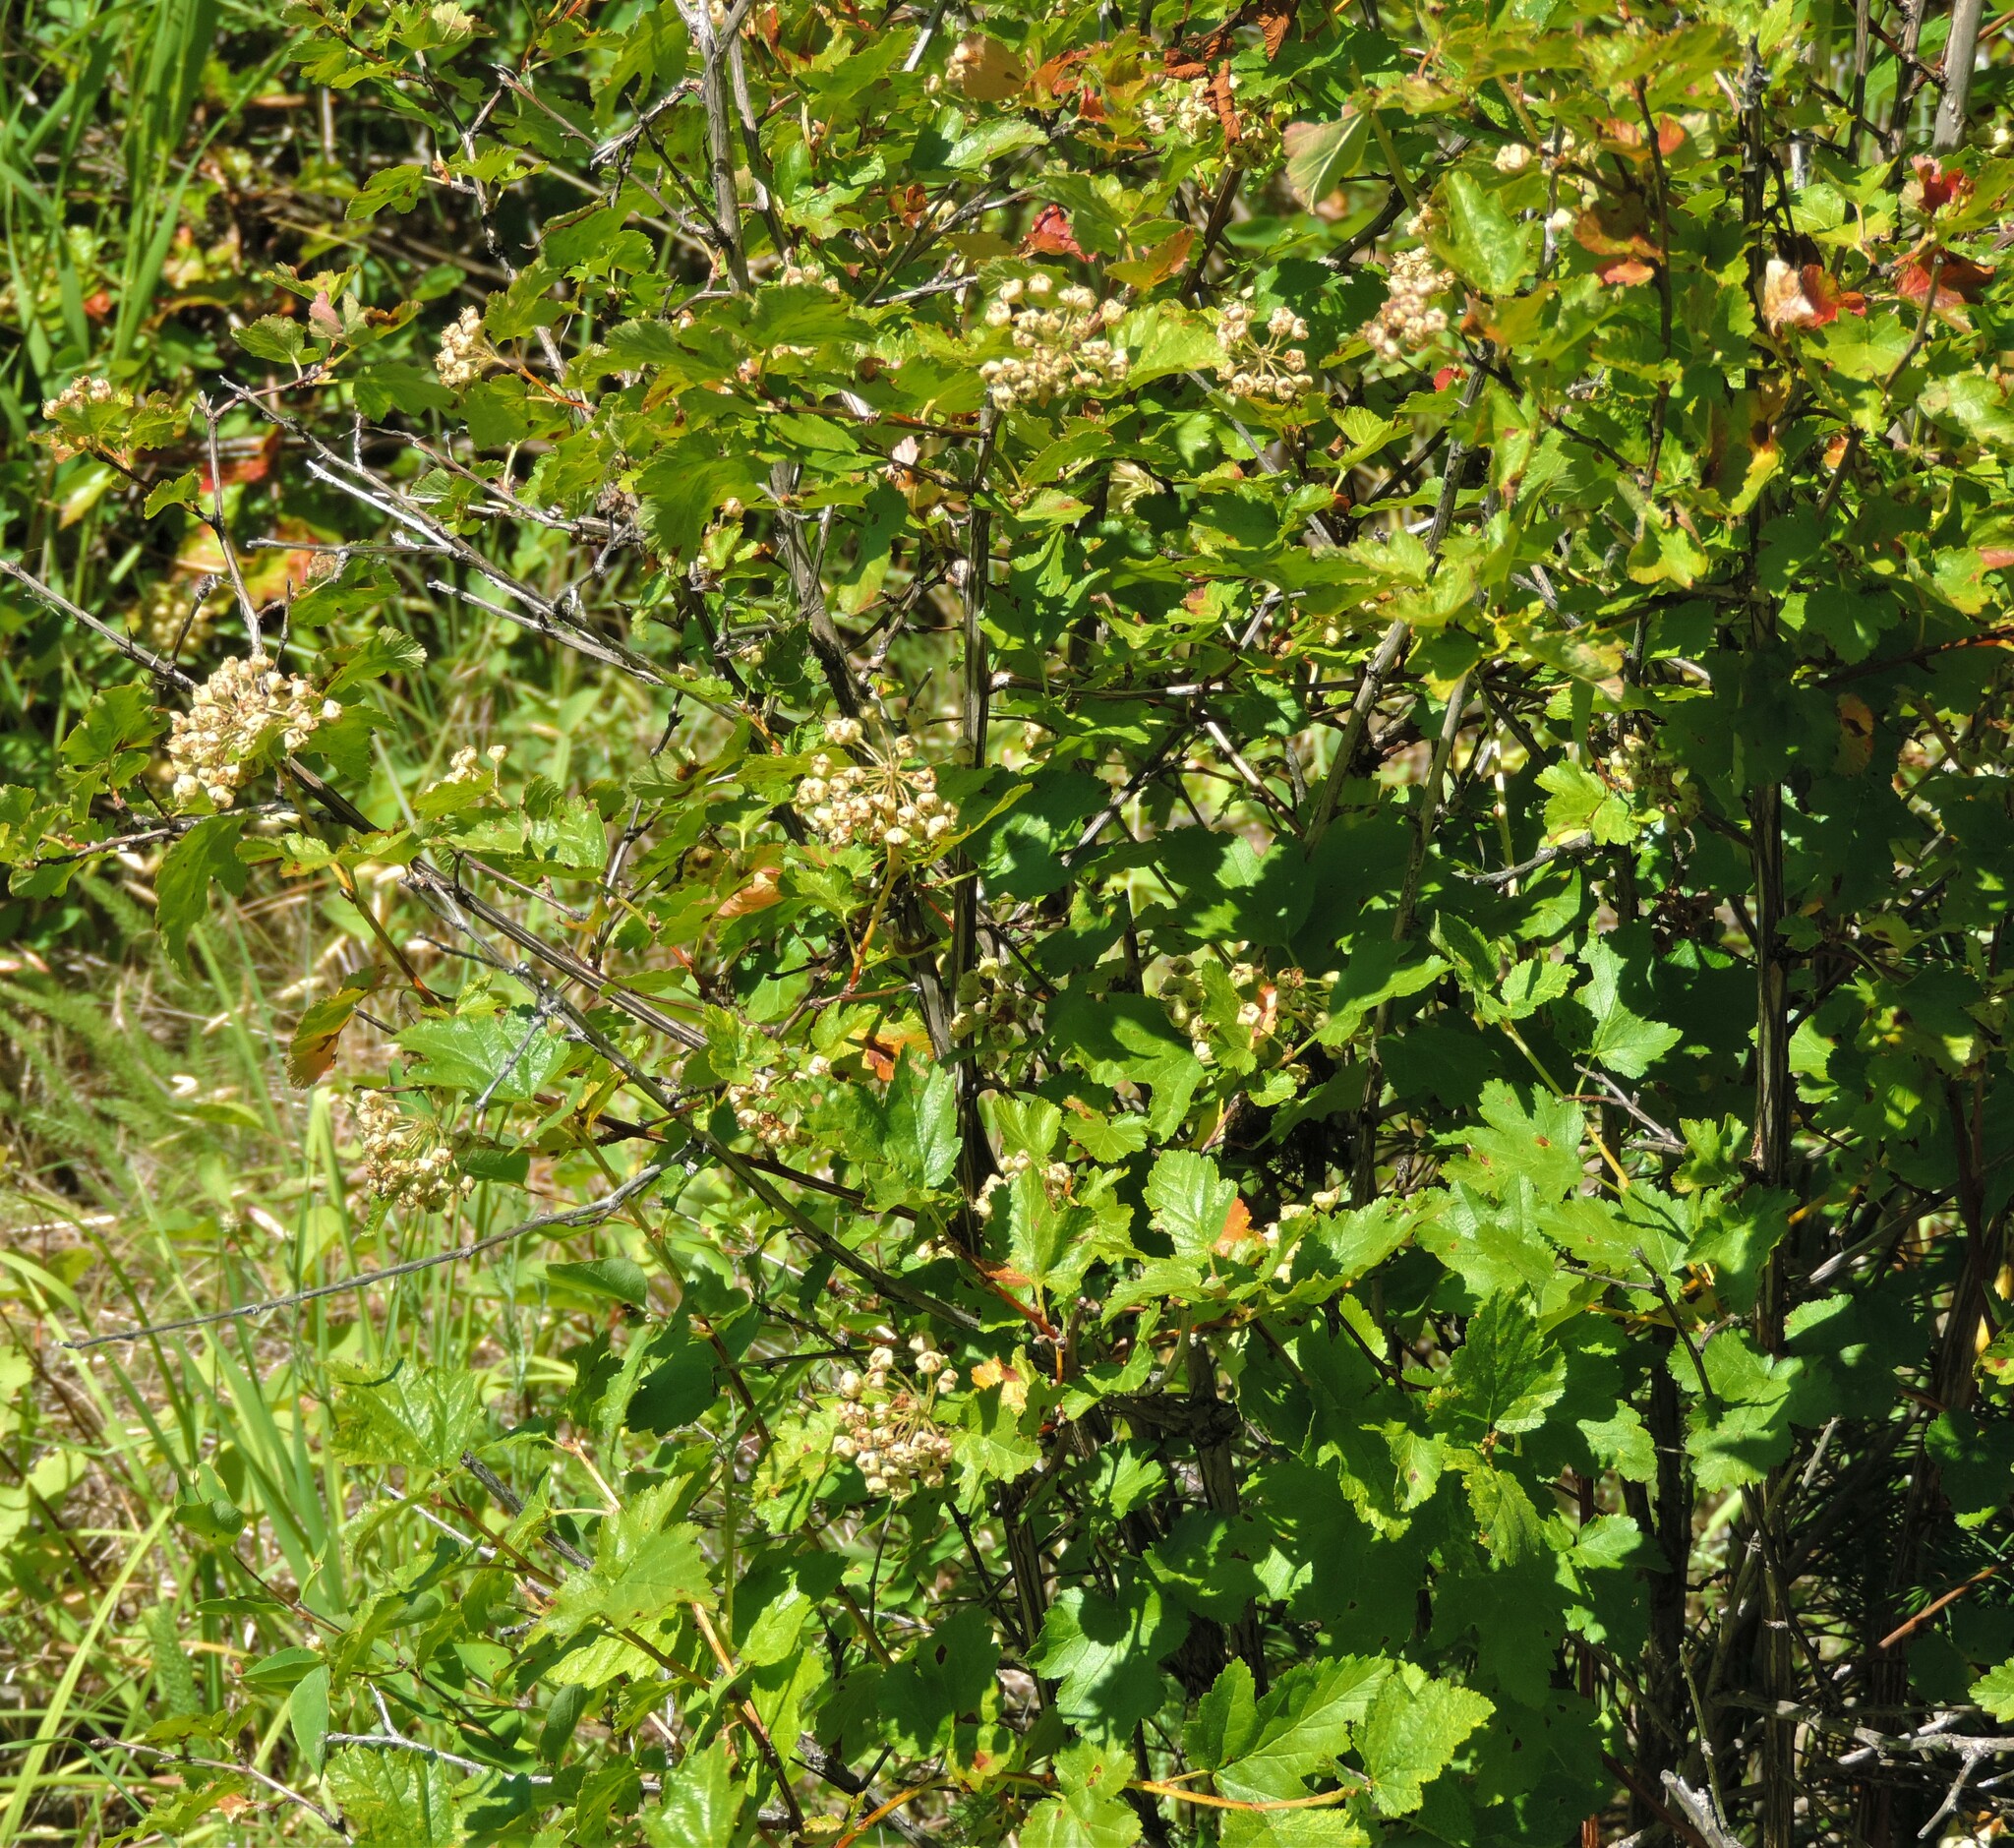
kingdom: Plantae
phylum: Tracheophyta
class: Magnoliopsida
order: Rosales
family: Rosaceae
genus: Physocarpus
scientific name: Physocarpus malvaceus
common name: Mallow ninebark
